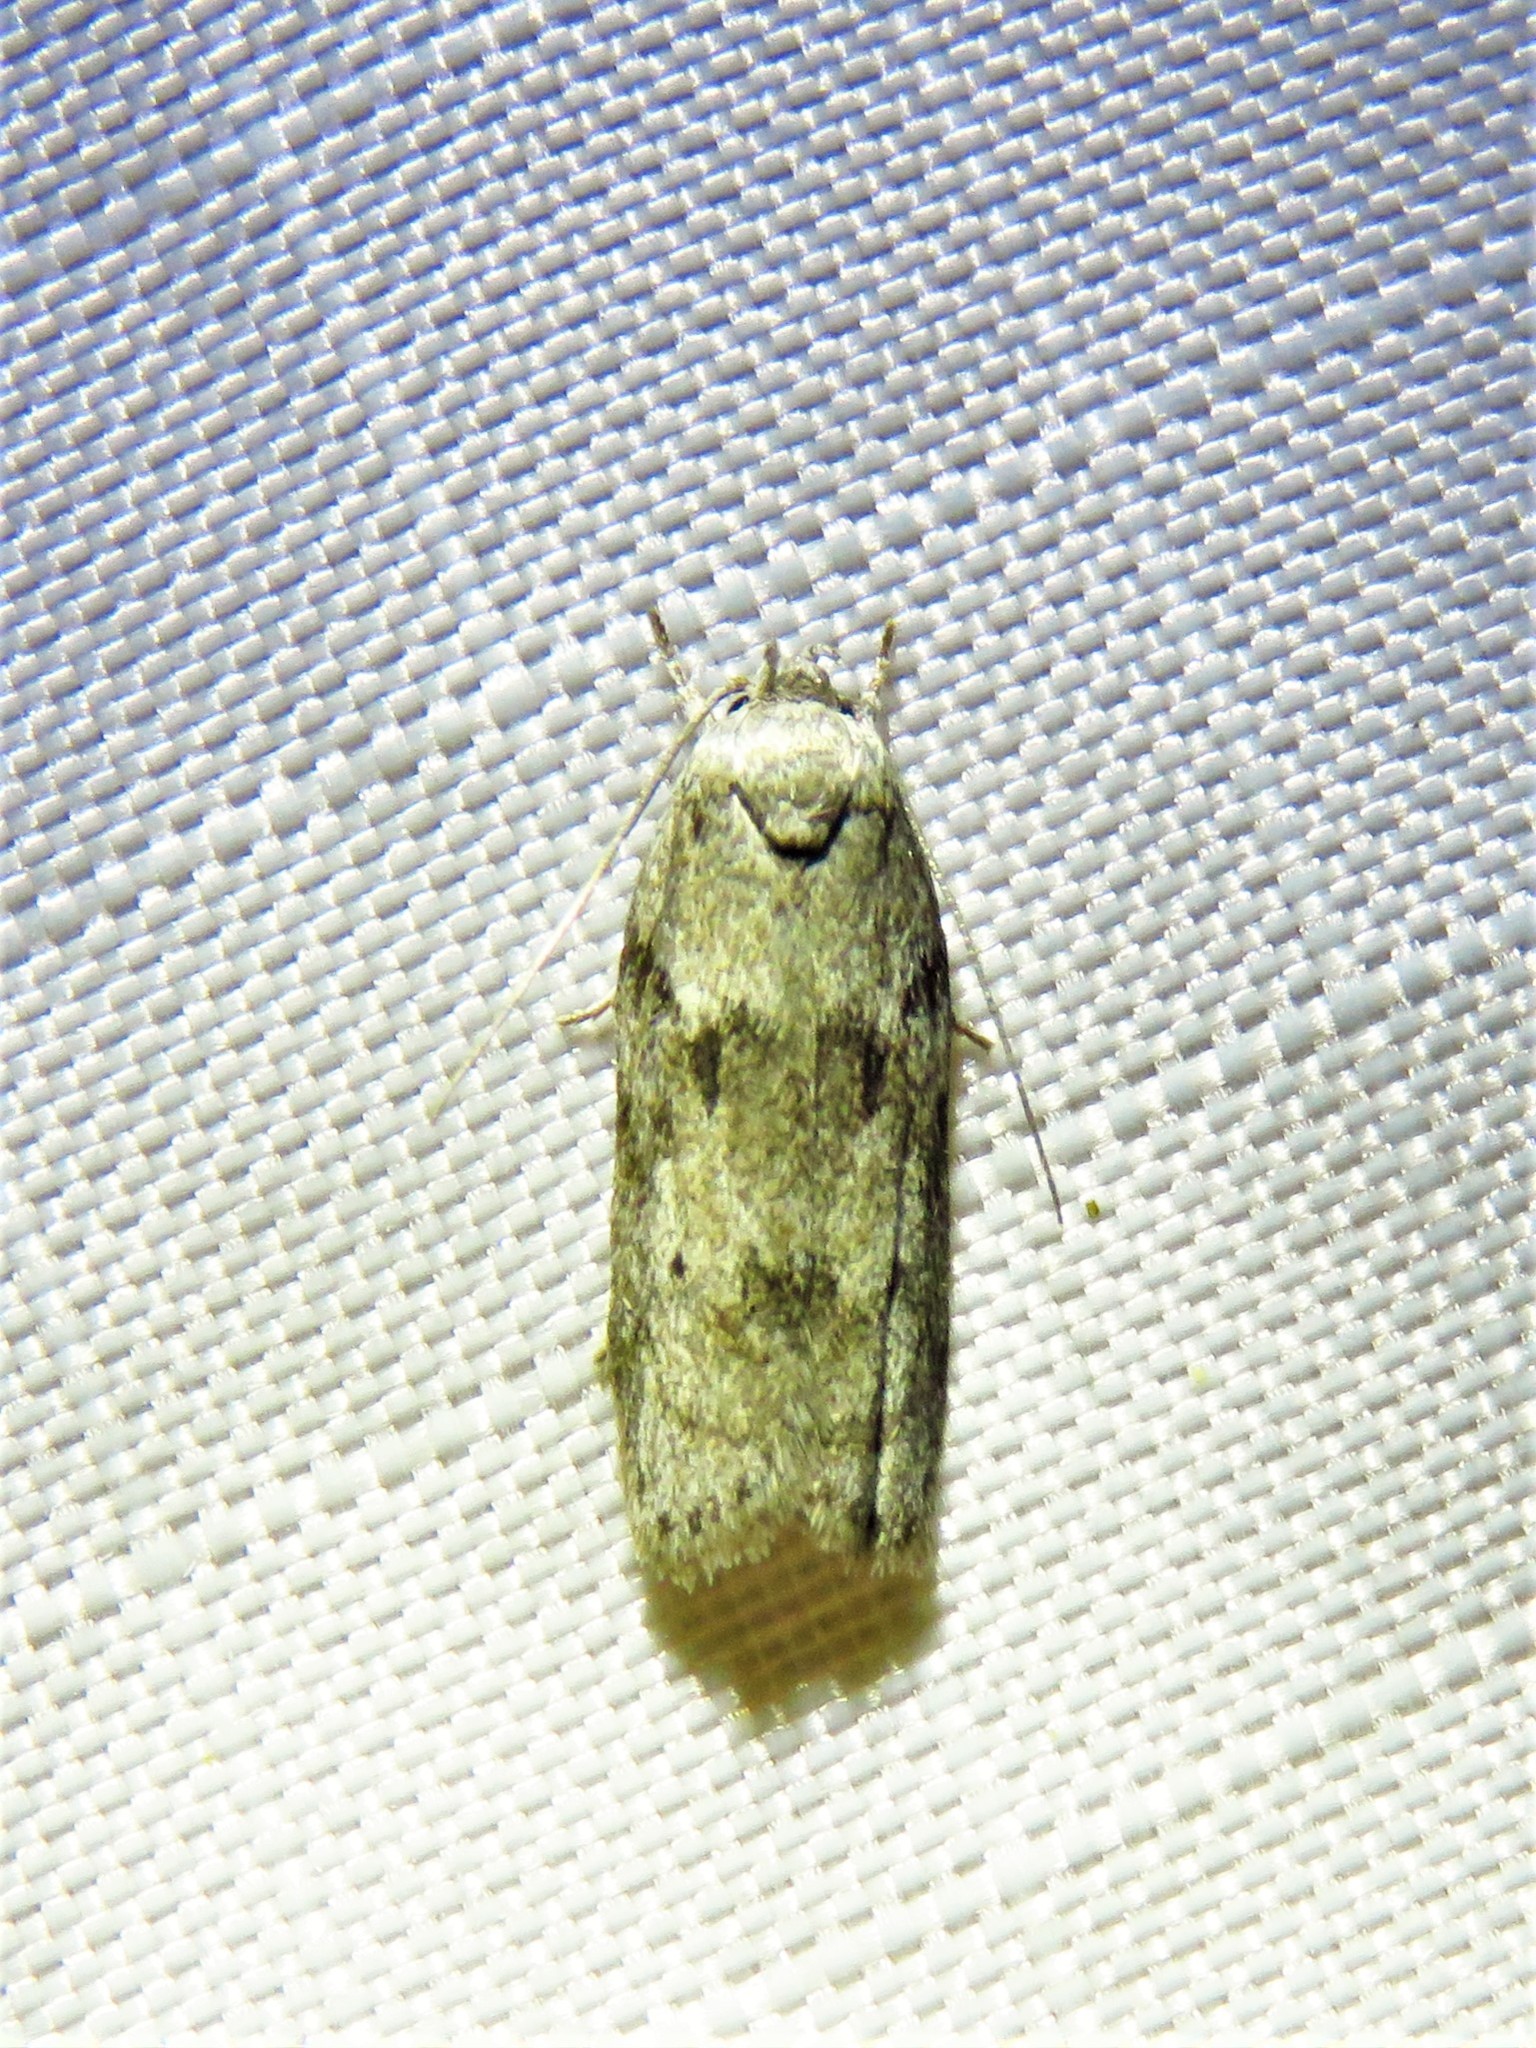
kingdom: Animalia
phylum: Arthropoda
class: Insecta
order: Lepidoptera
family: Depressariidae
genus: Antaeotricha
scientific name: Antaeotricha humilis
